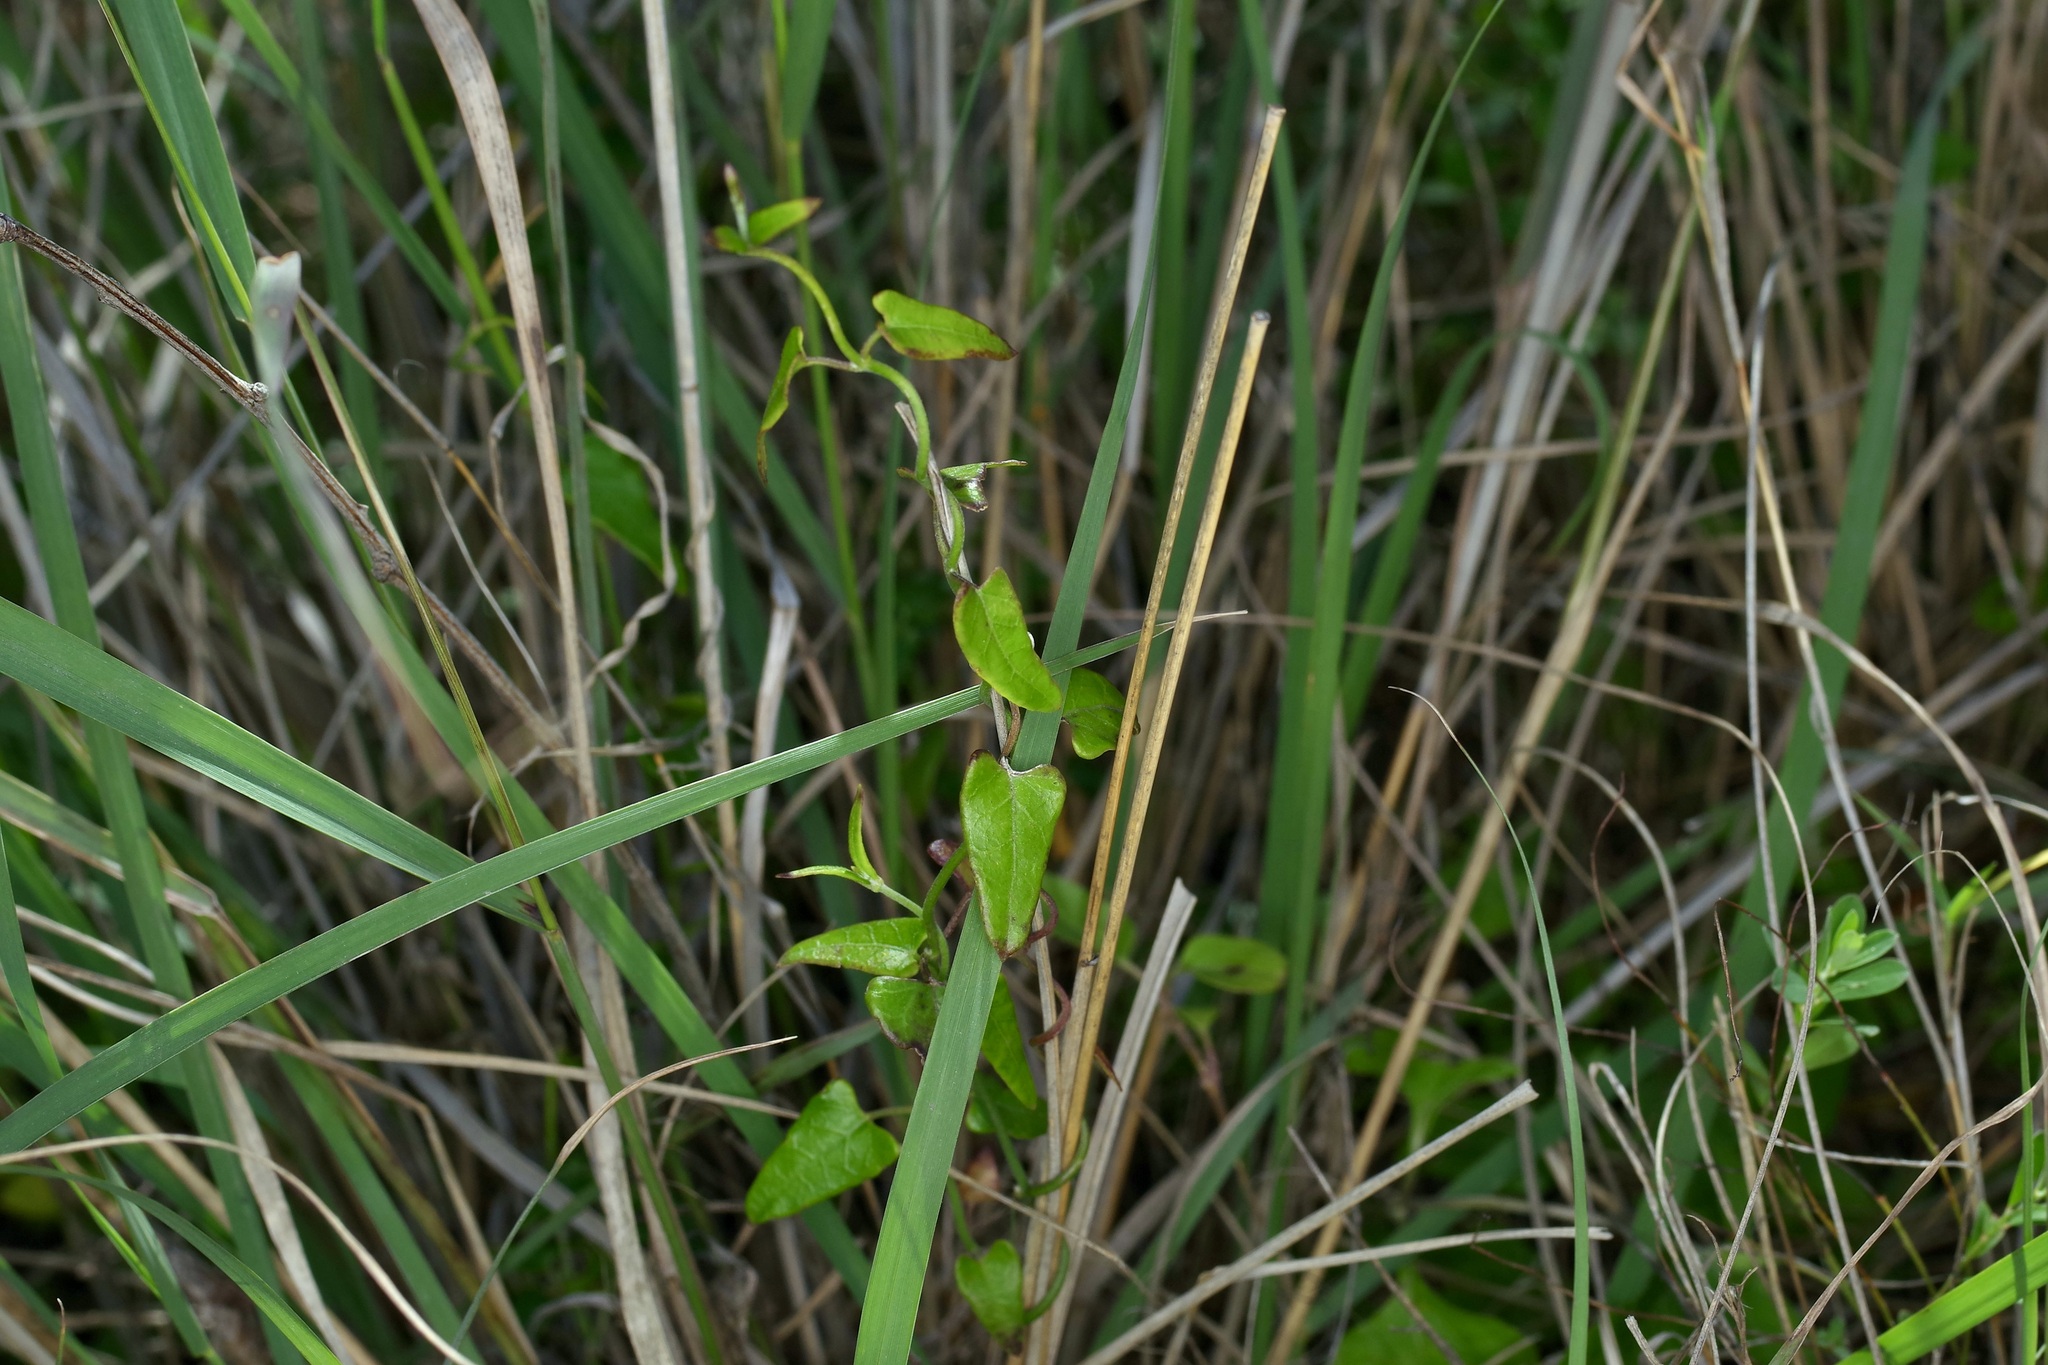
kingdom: Plantae
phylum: Tracheophyta
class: Magnoliopsida
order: Gentianales
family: Apocynaceae
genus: Matelea
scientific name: Matelea sagittifolia
